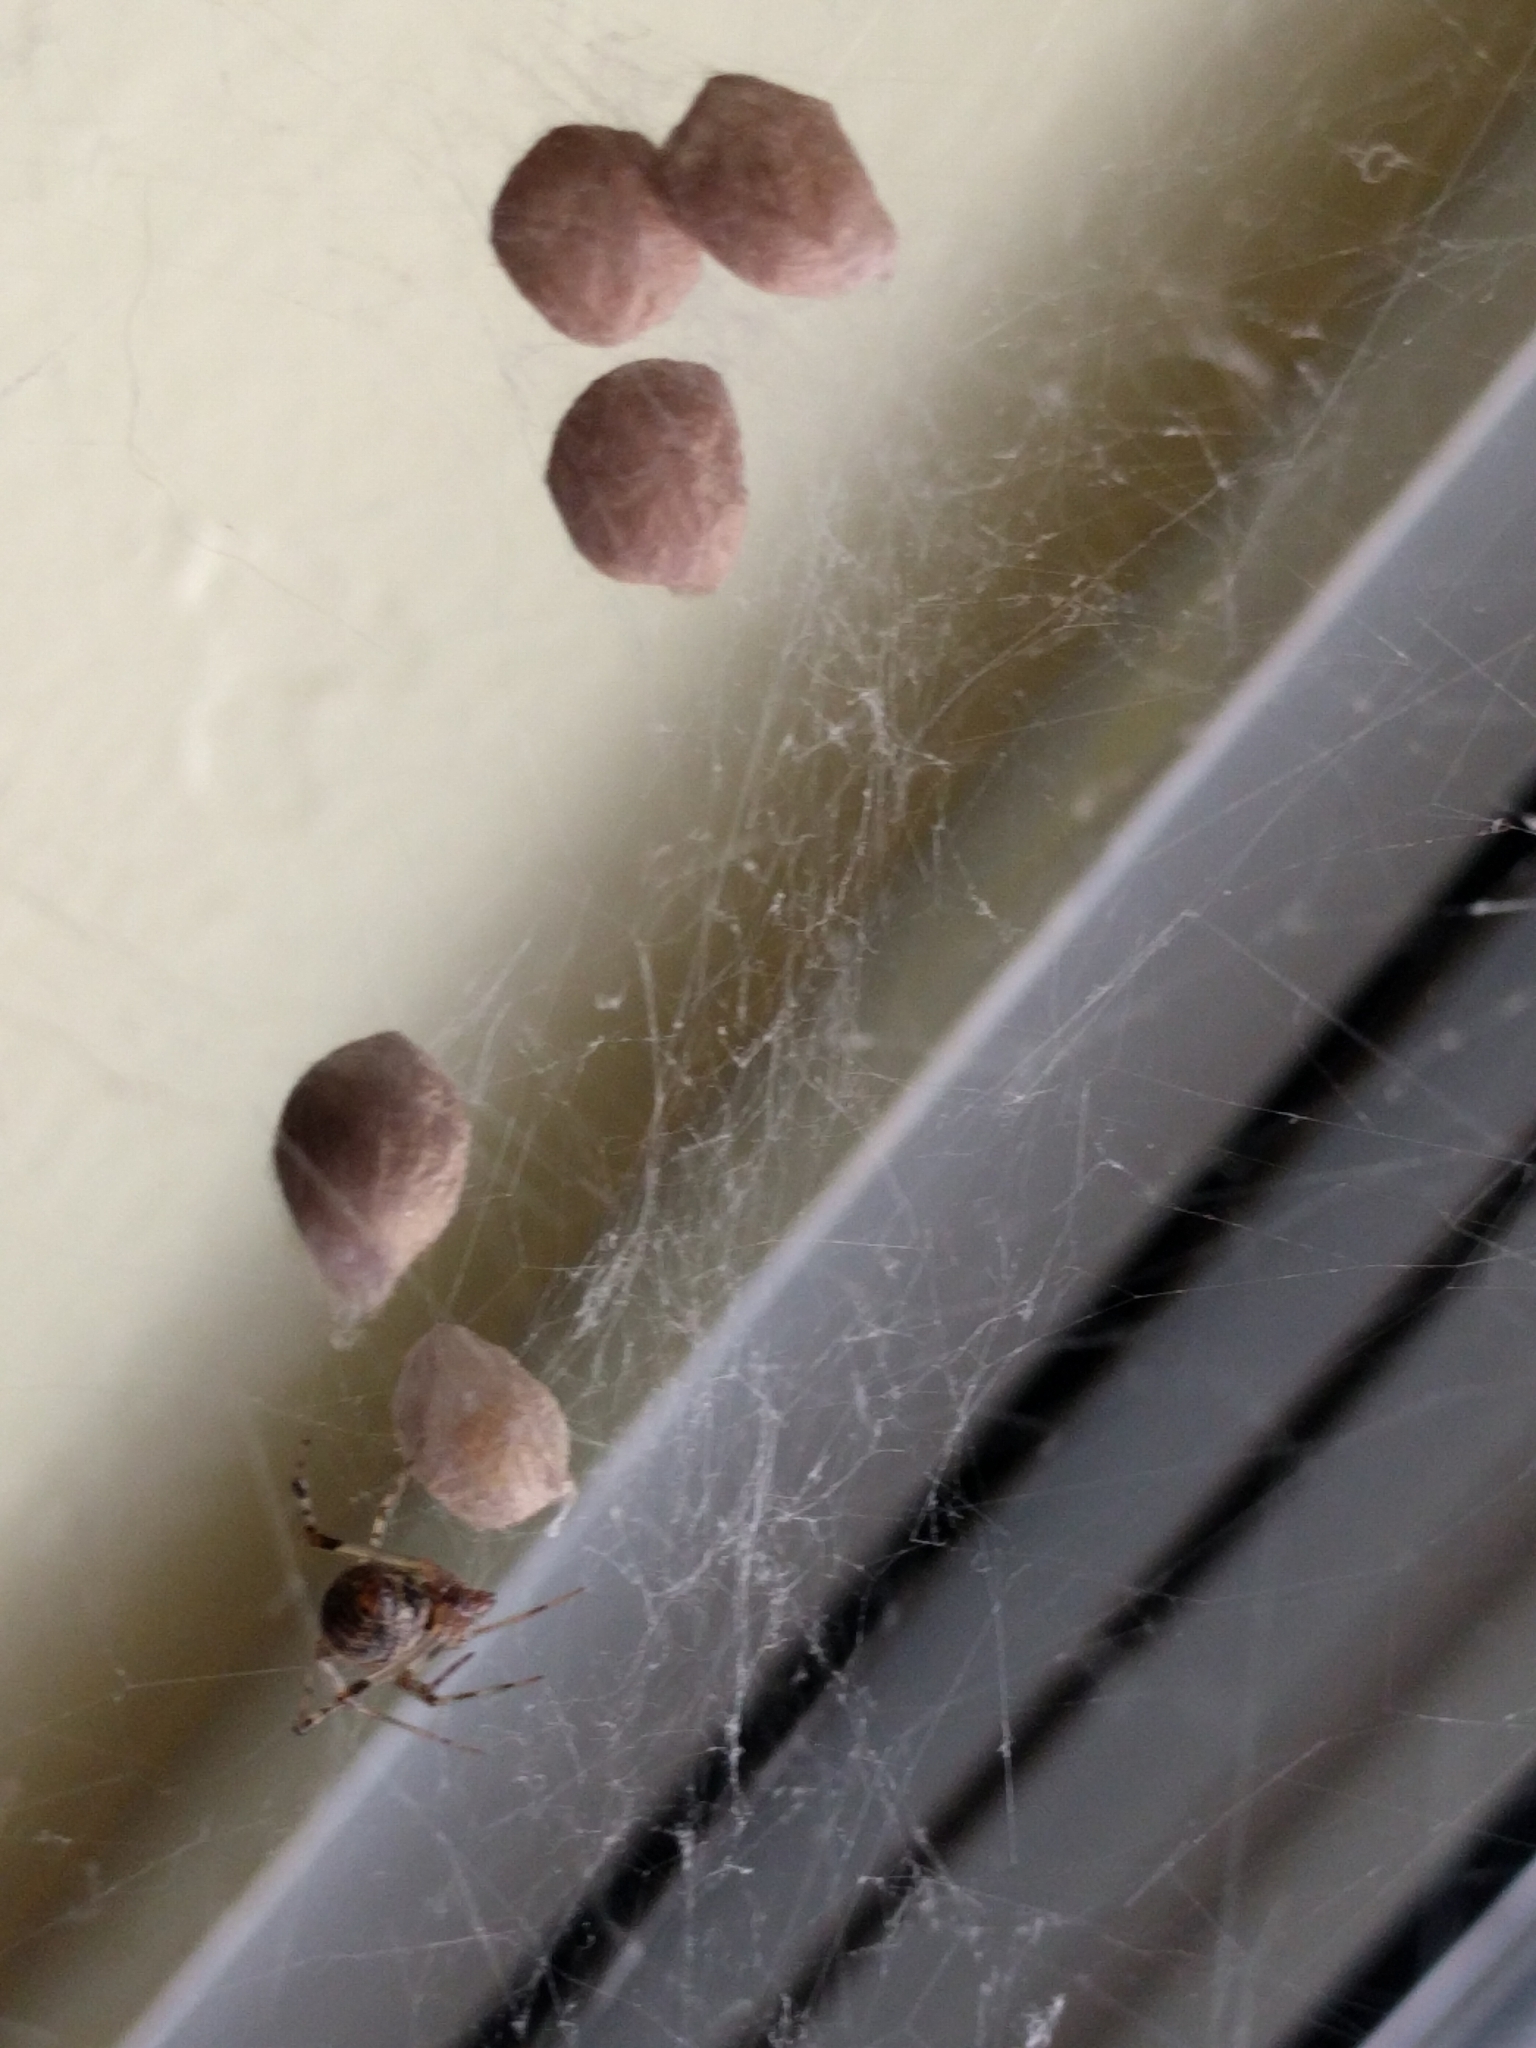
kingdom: Animalia
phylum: Arthropoda
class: Arachnida
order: Araneae
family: Theridiidae
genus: Parasteatoda
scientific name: Parasteatoda tepidariorum
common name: Common house spider
